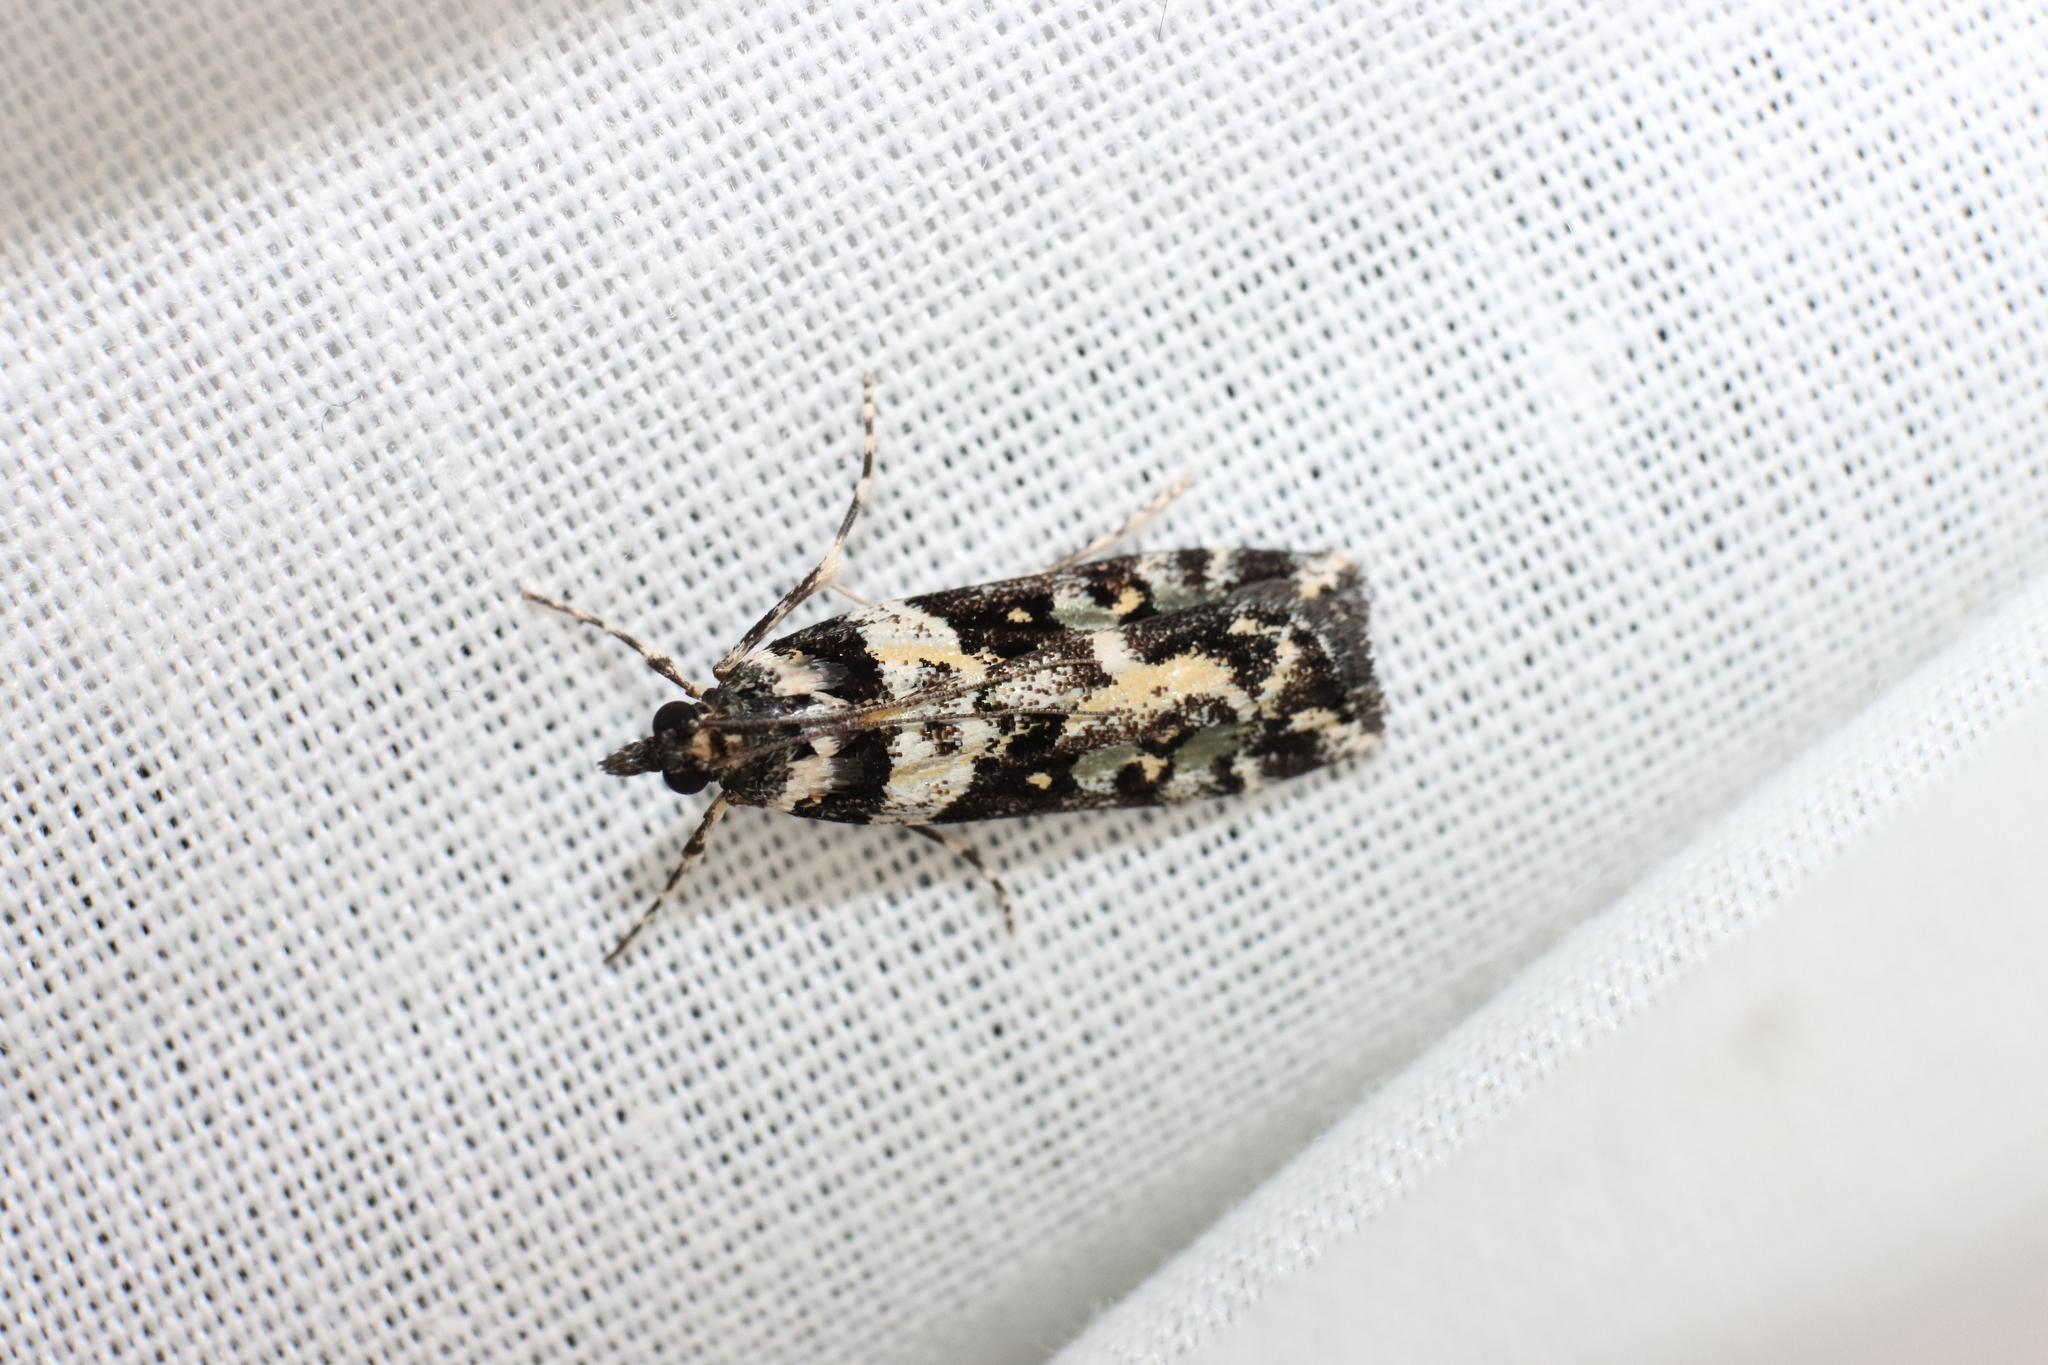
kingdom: Animalia
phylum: Arthropoda
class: Insecta
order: Lepidoptera
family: Crambidae
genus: Eudonia
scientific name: Eudonia diphtheralis
